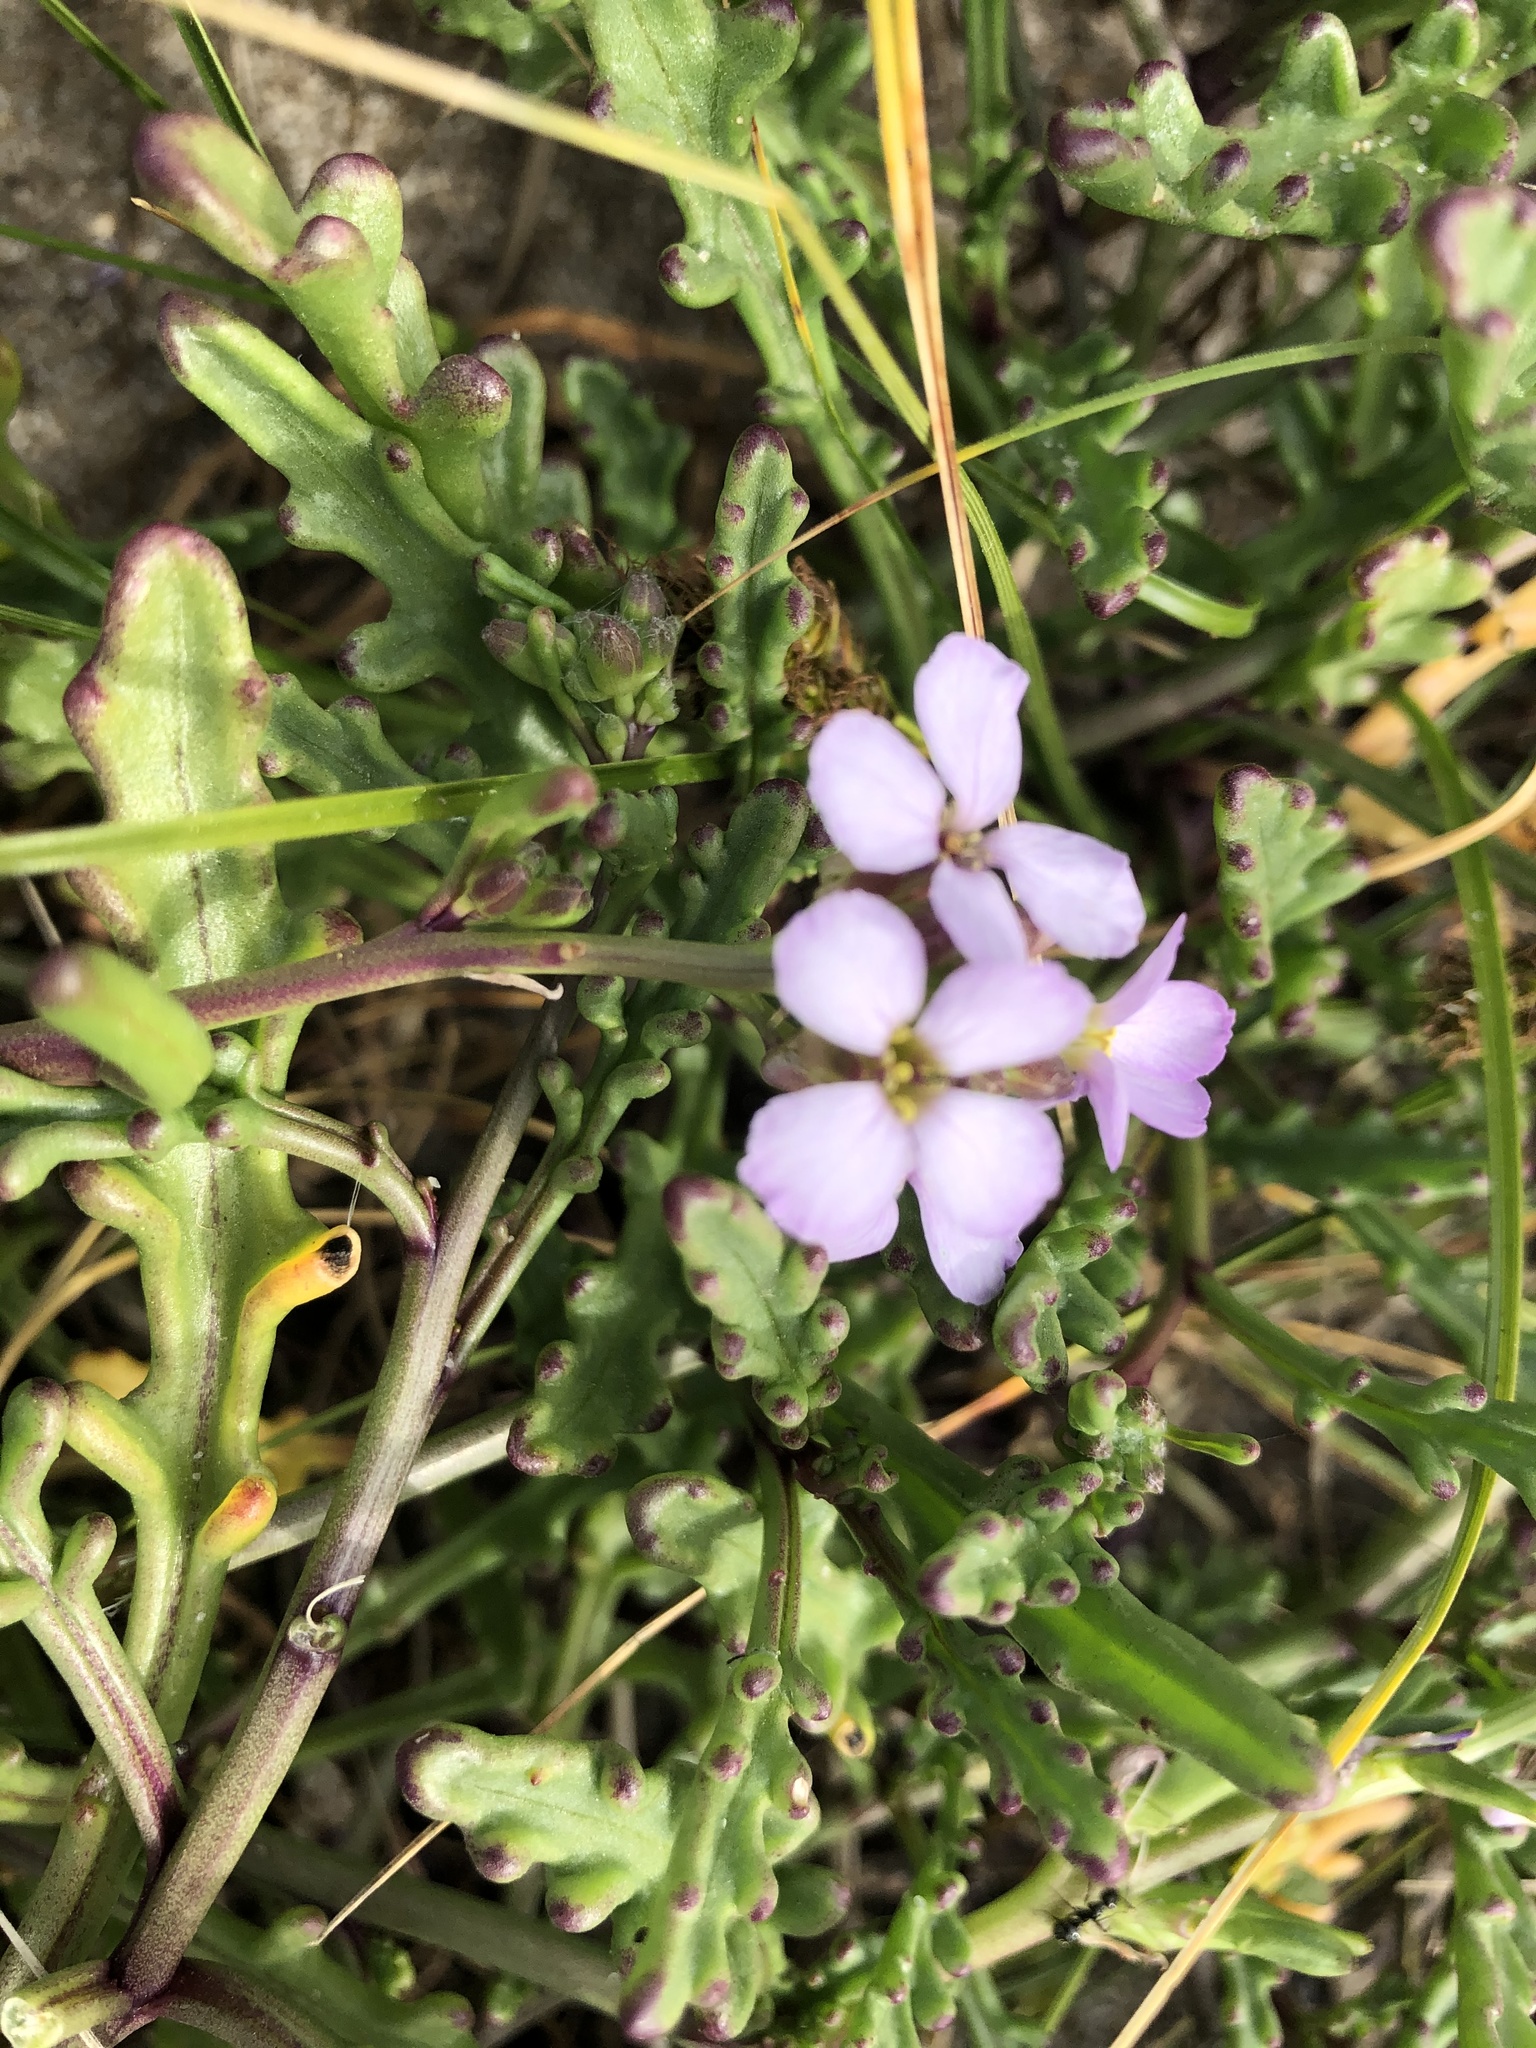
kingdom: Plantae
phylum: Tracheophyta
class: Magnoliopsida
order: Brassicales
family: Brassicaceae
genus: Cakile
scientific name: Cakile maritima
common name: Sea rocket
